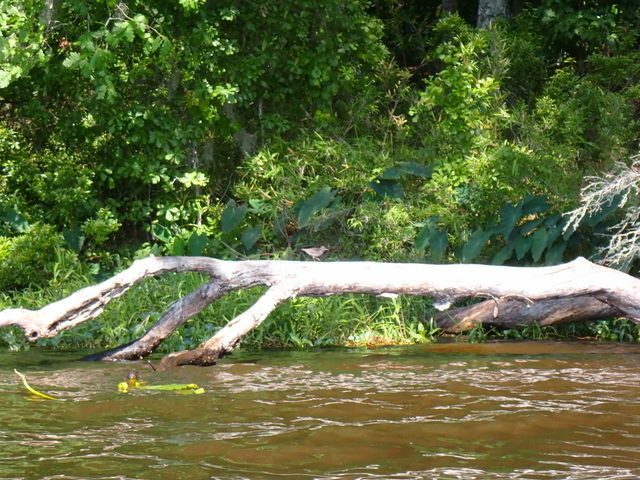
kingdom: Animalia
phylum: Chordata
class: Aves
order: Charadriiformes
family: Scolopacidae
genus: Actitis
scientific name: Actitis macularius
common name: Spotted sandpiper
